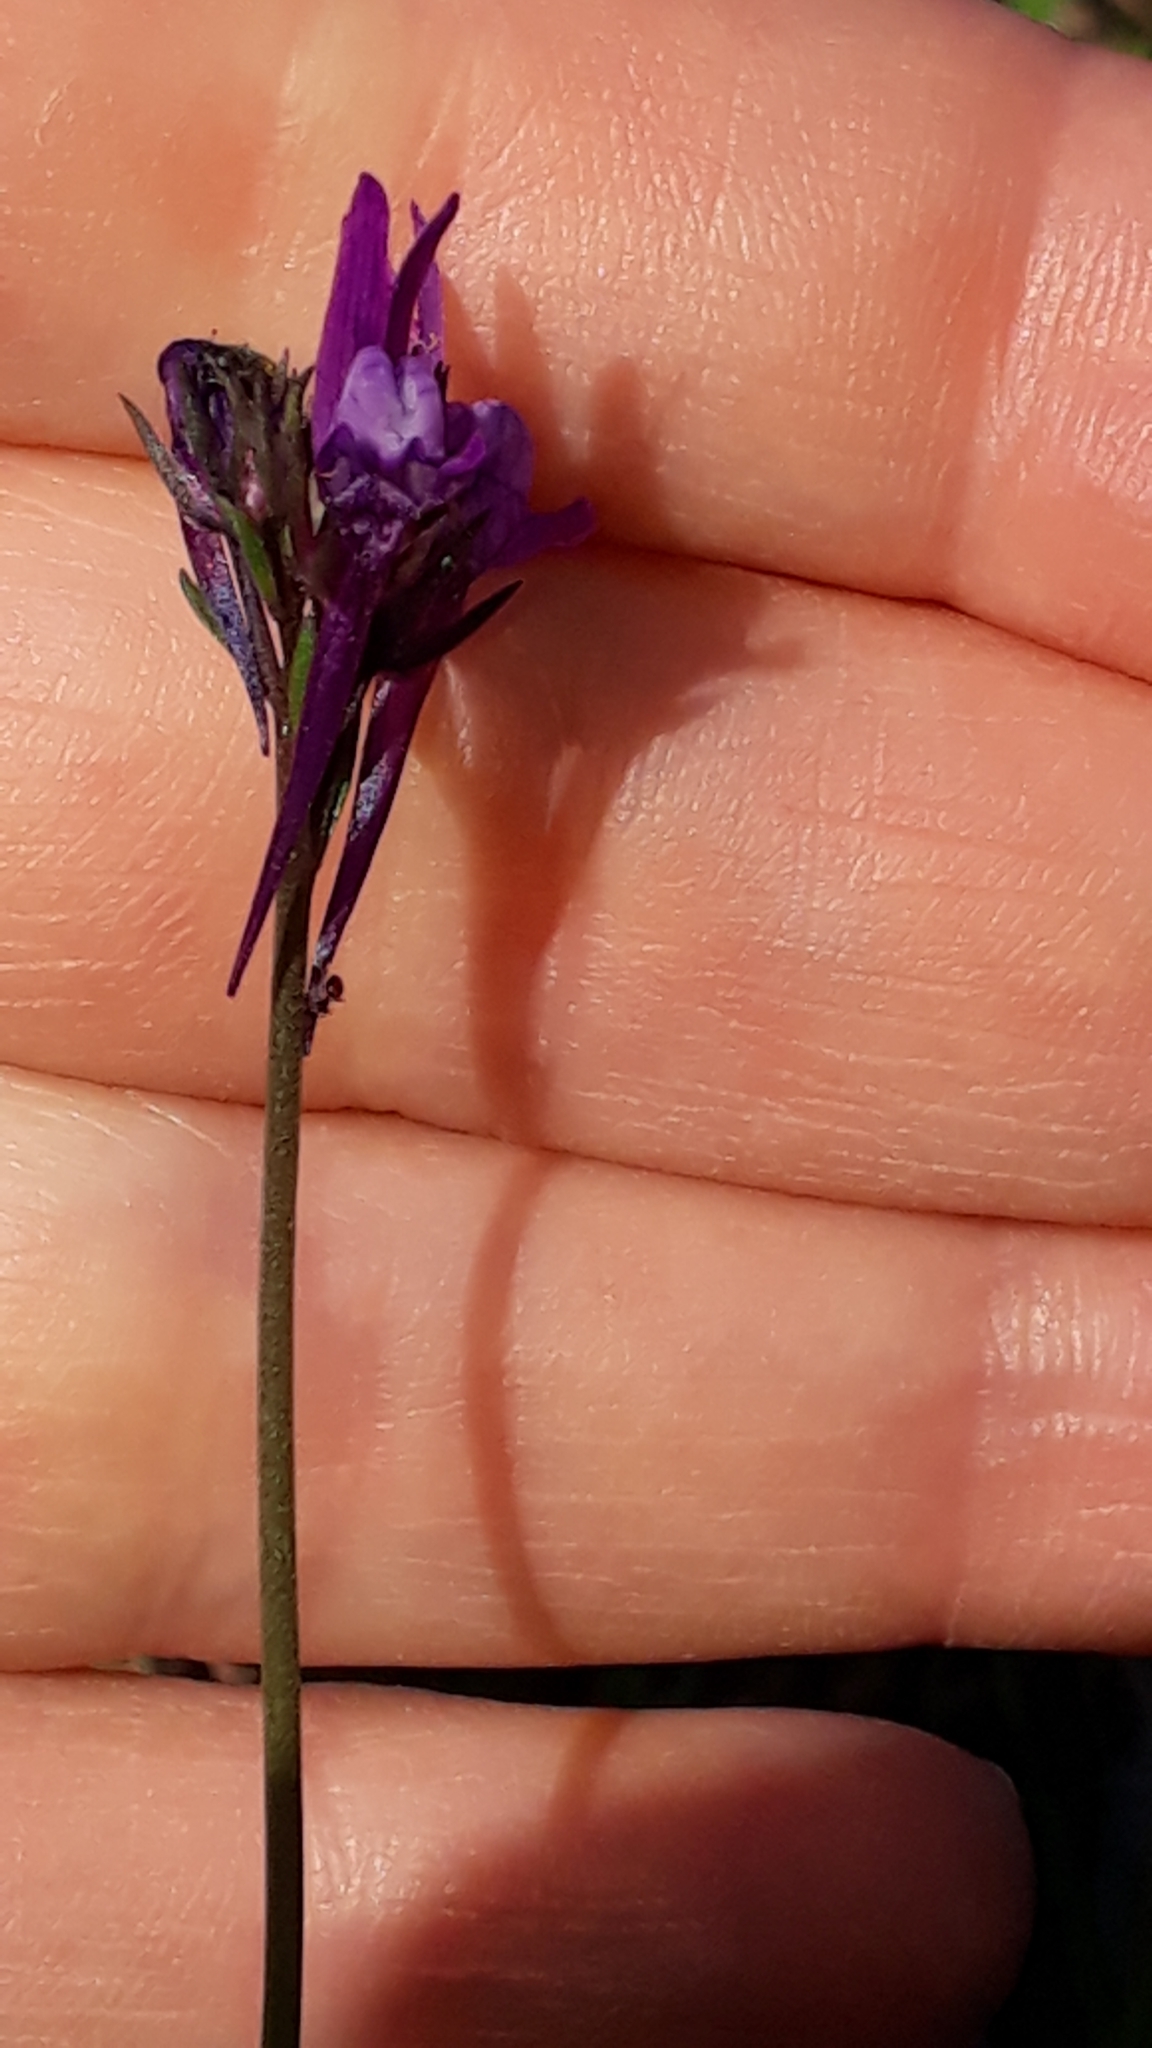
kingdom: Plantae
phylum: Tracheophyta
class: Magnoliopsida
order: Lamiales
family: Plantaginaceae
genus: Linaria
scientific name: Linaria pelisseriana
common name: Jersey toadflax
